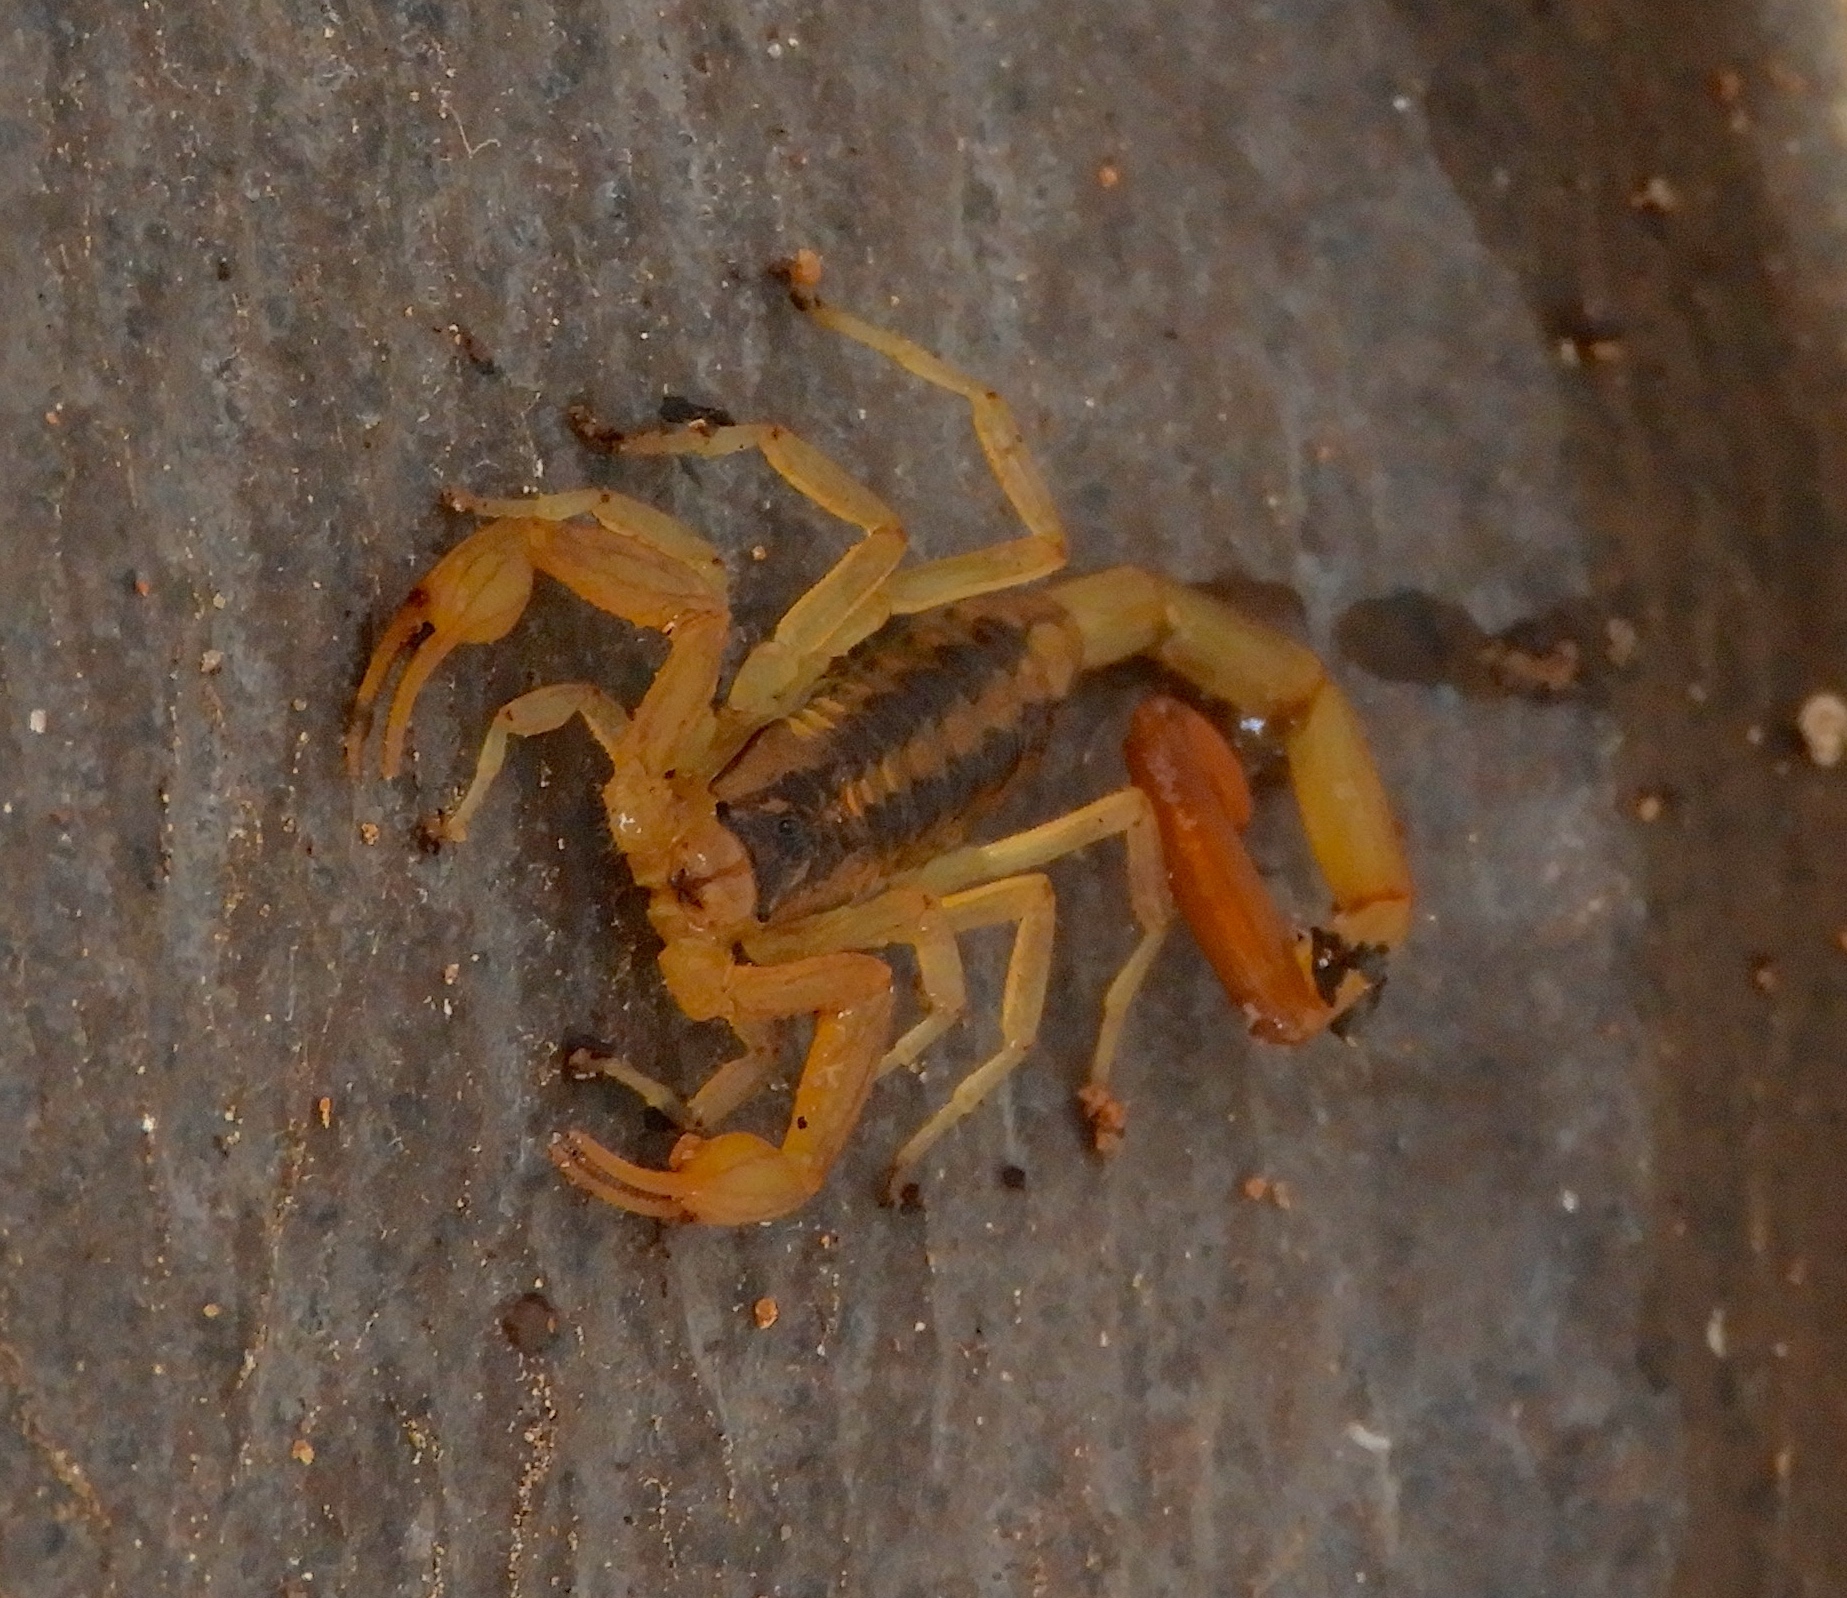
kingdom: Animalia
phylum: Arthropoda
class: Arachnida
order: Scorpiones
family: Buthidae
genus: Centruroides
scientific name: Centruroides baldazoi
